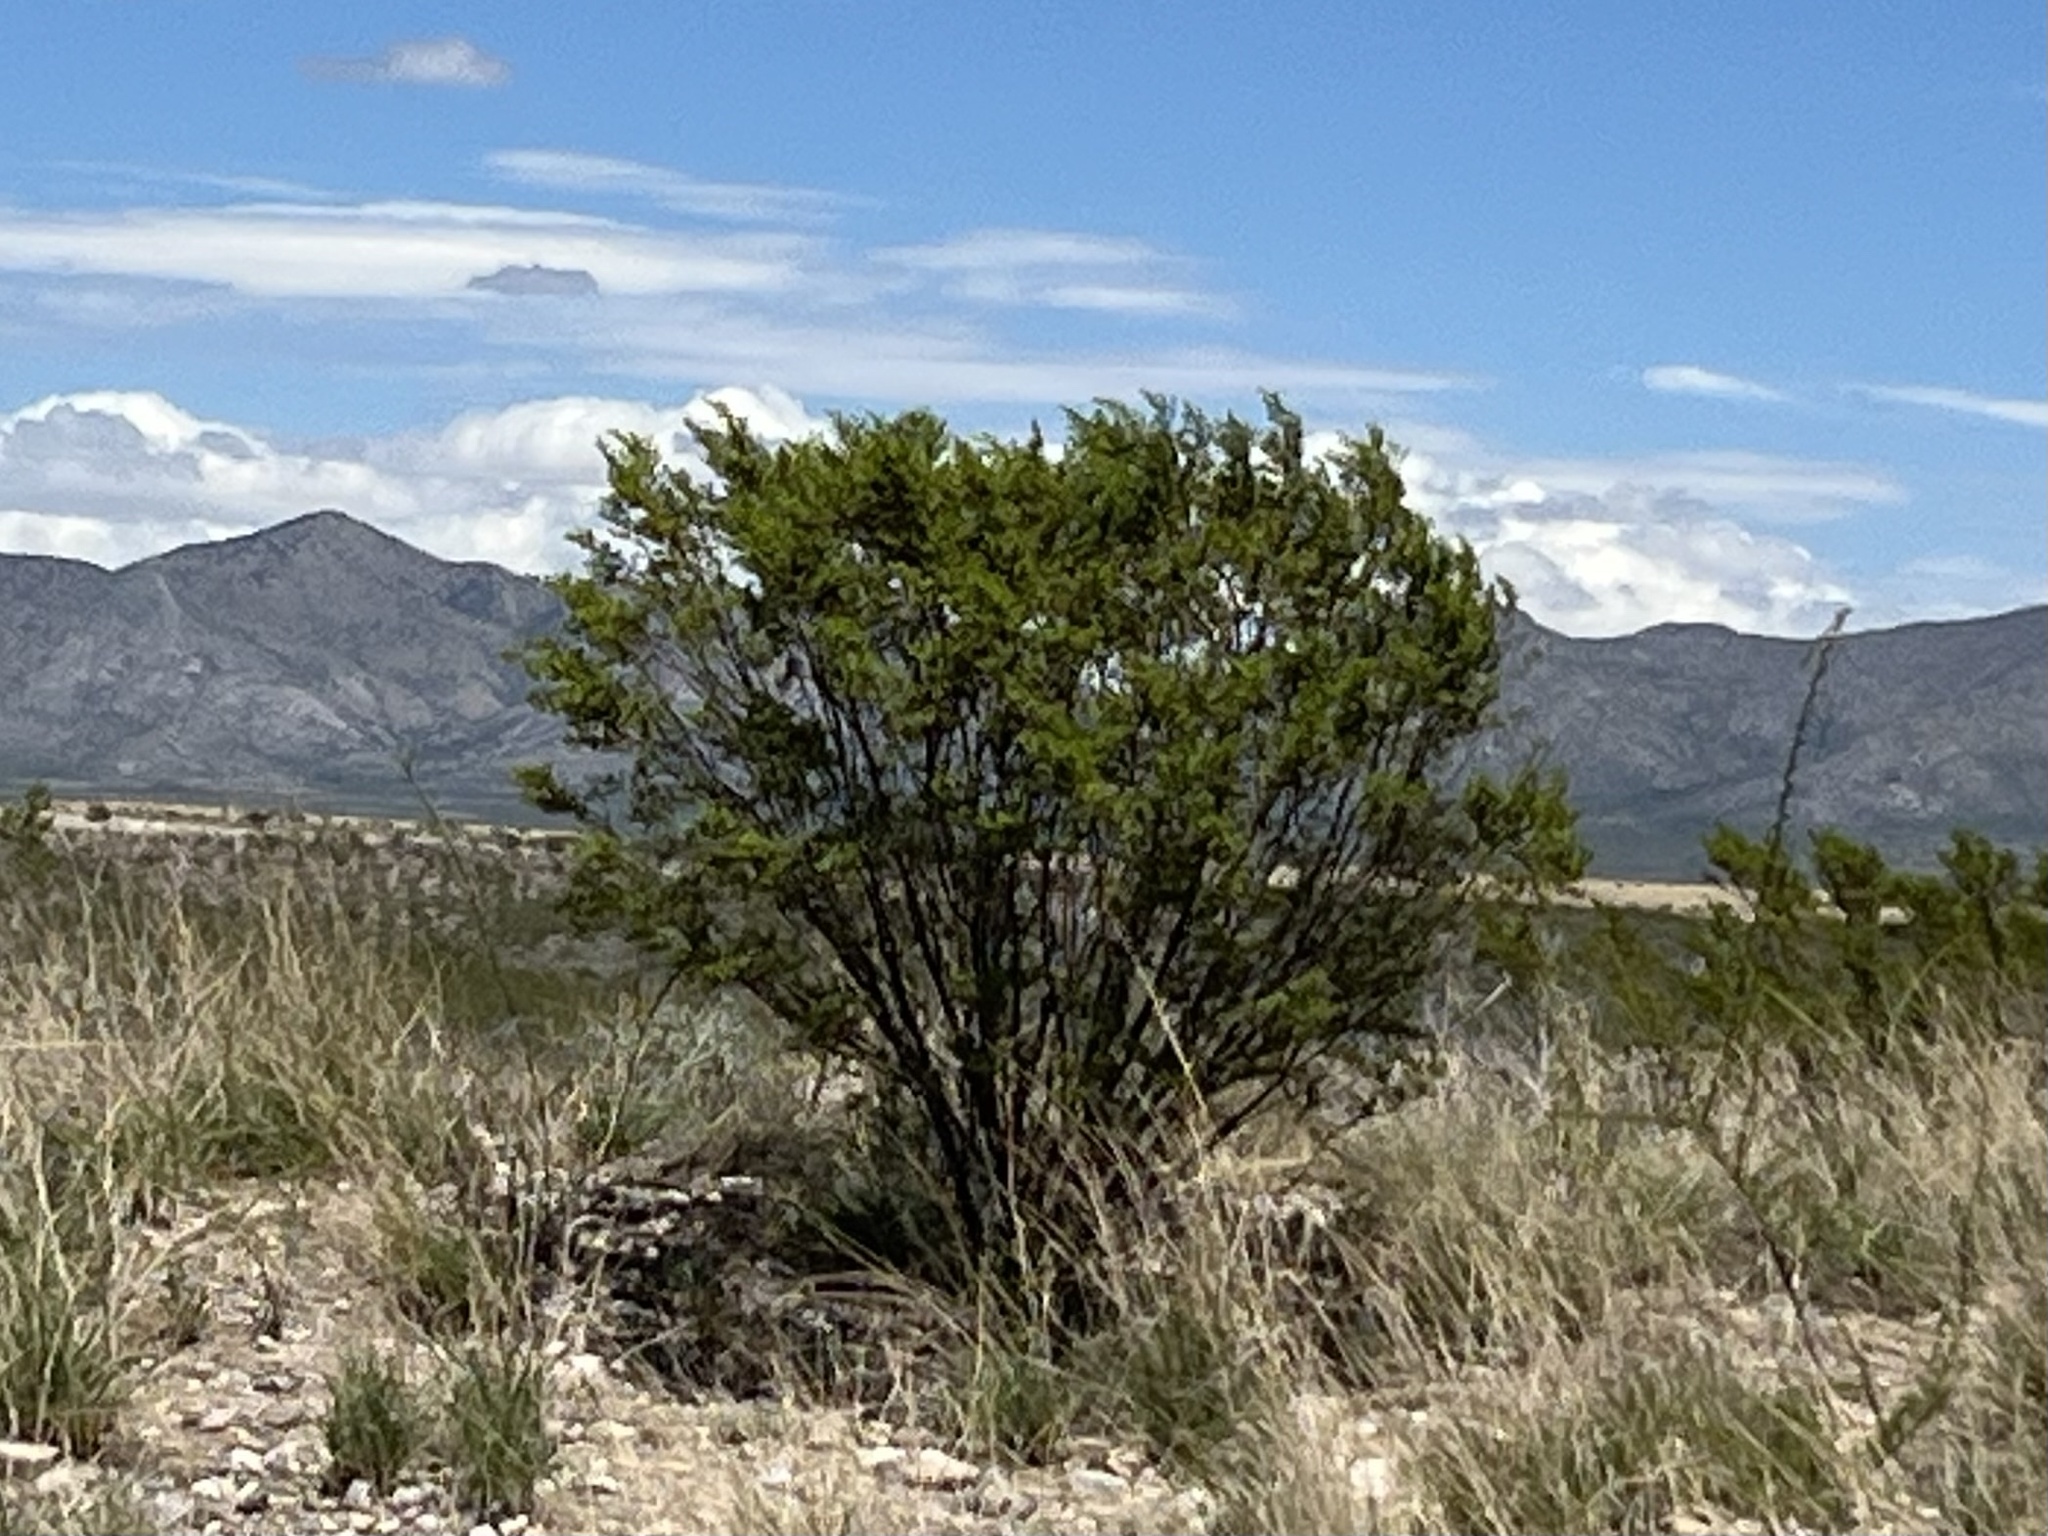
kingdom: Plantae
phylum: Tracheophyta
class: Magnoliopsida
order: Zygophyllales
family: Zygophyllaceae
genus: Larrea
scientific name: Larrea tridentata
